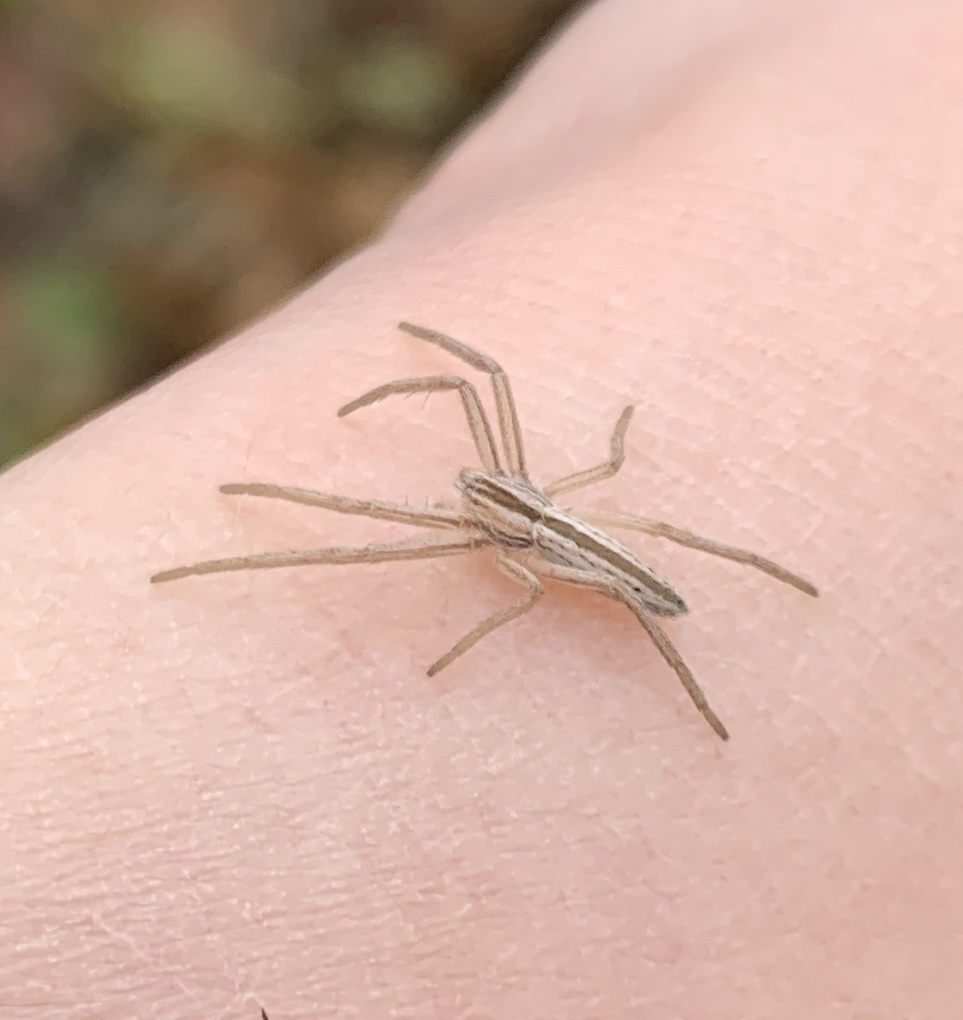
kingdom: Animalia
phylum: Arthropoda
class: Arachnida
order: Araneae
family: Philodromidae
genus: Tibellus
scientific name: Tibellus oblongus
